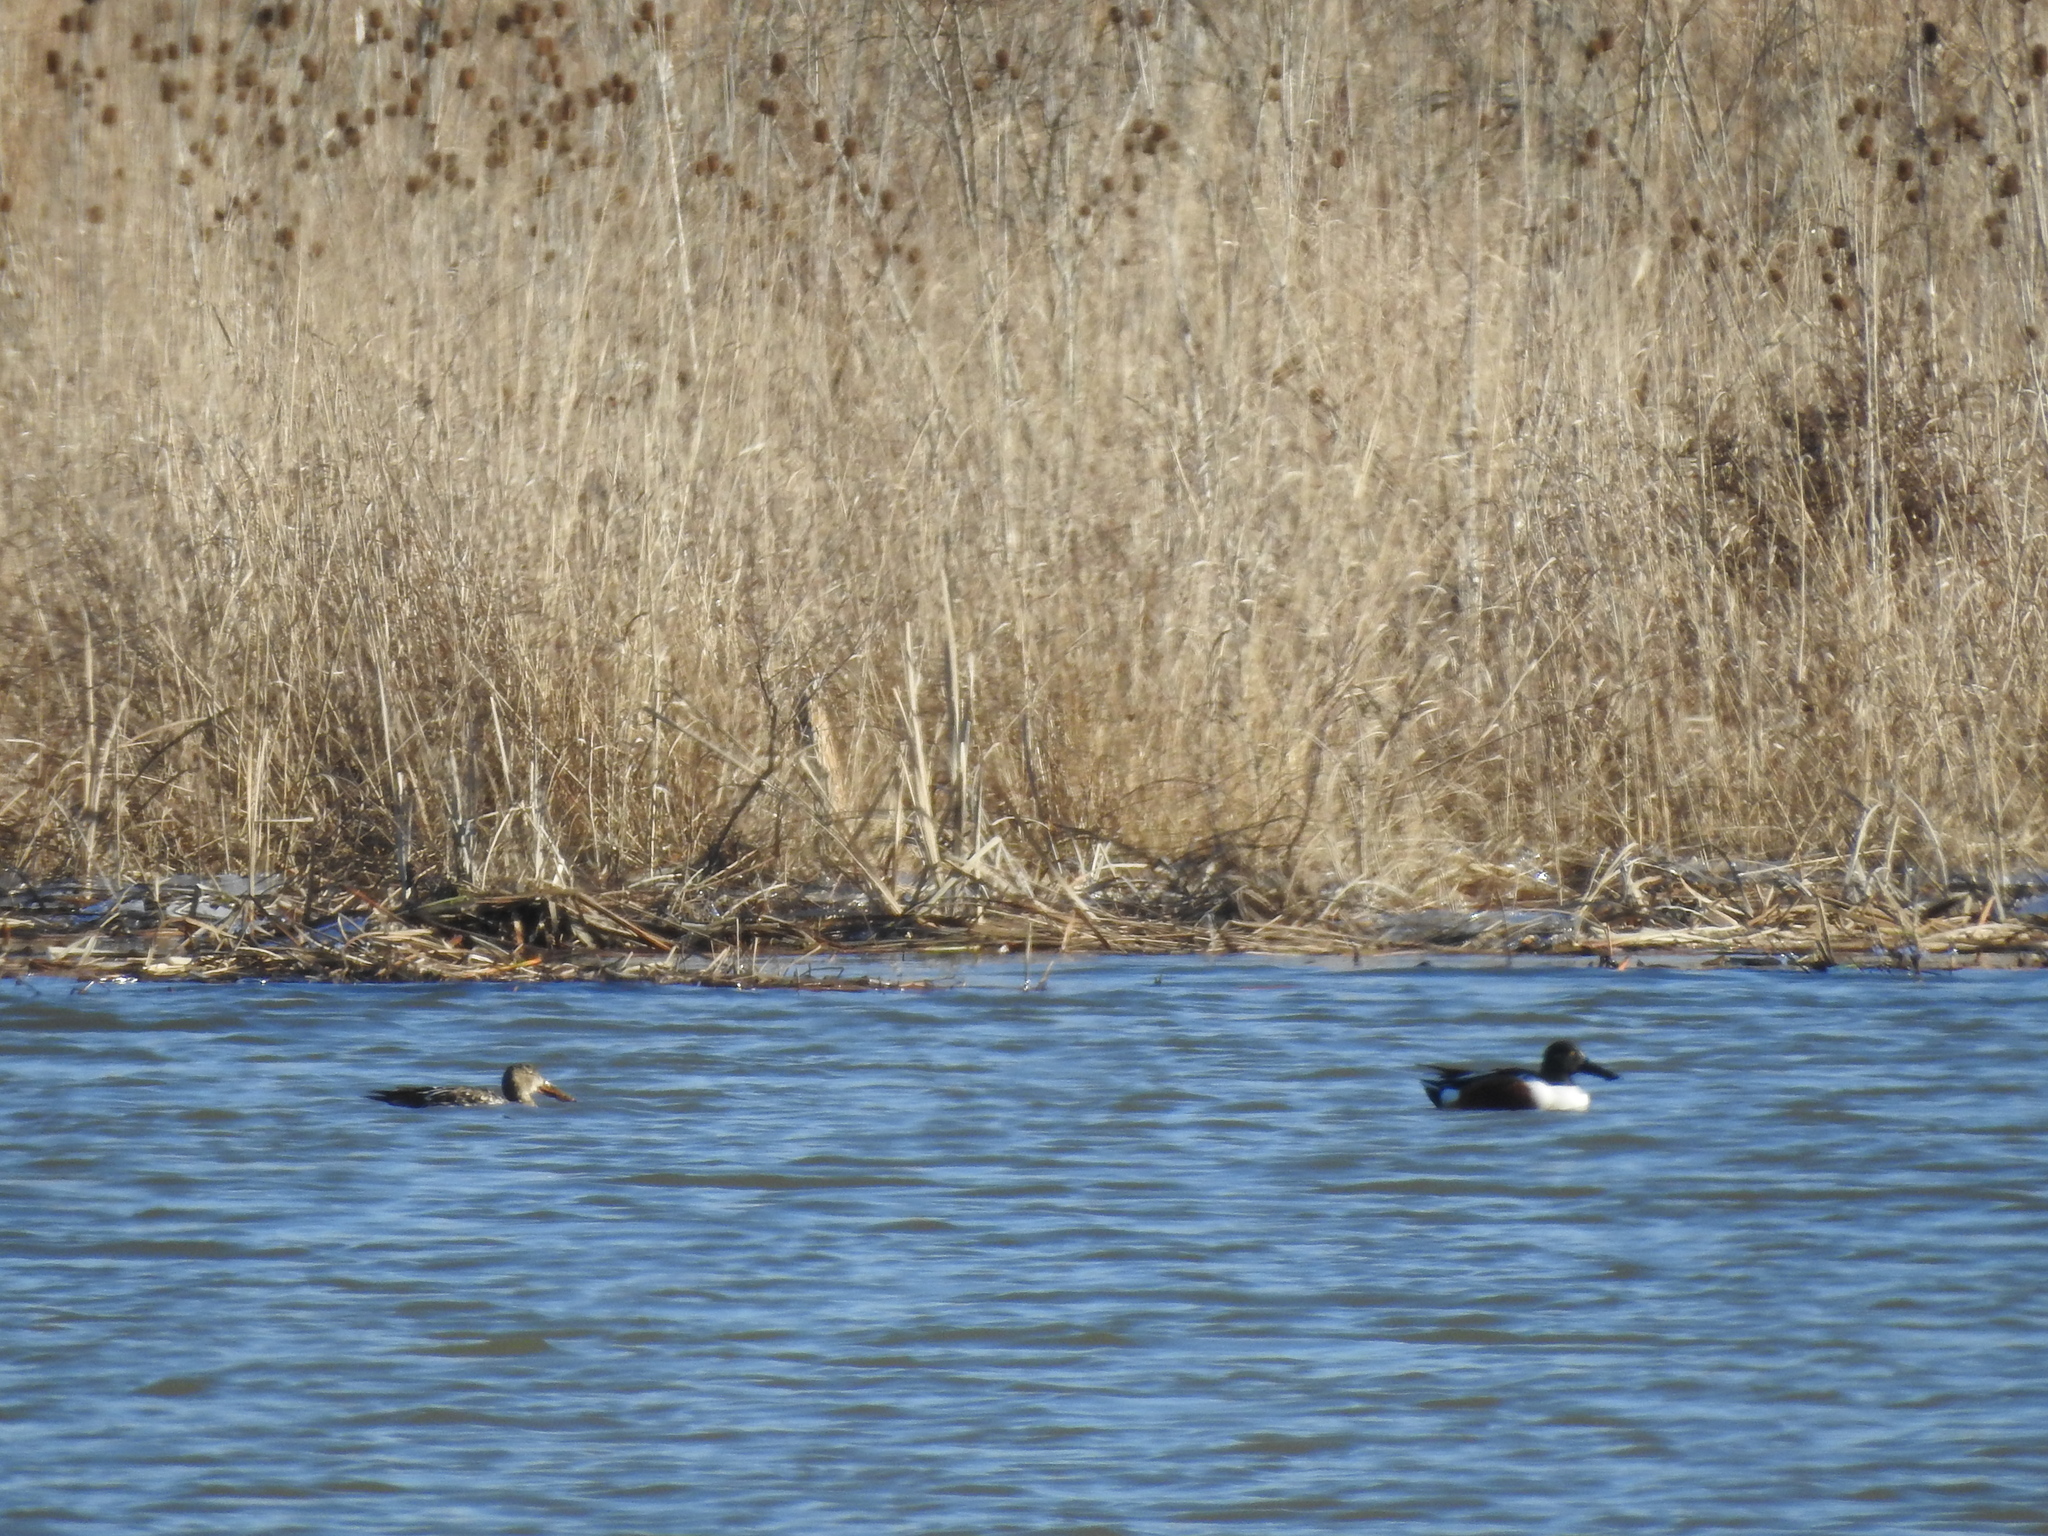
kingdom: Animalia
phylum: Chordata
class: Aves
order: Anseriformes
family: Anatidae
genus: Spatula
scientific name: Spatula clypeata
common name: Northern shoveler
